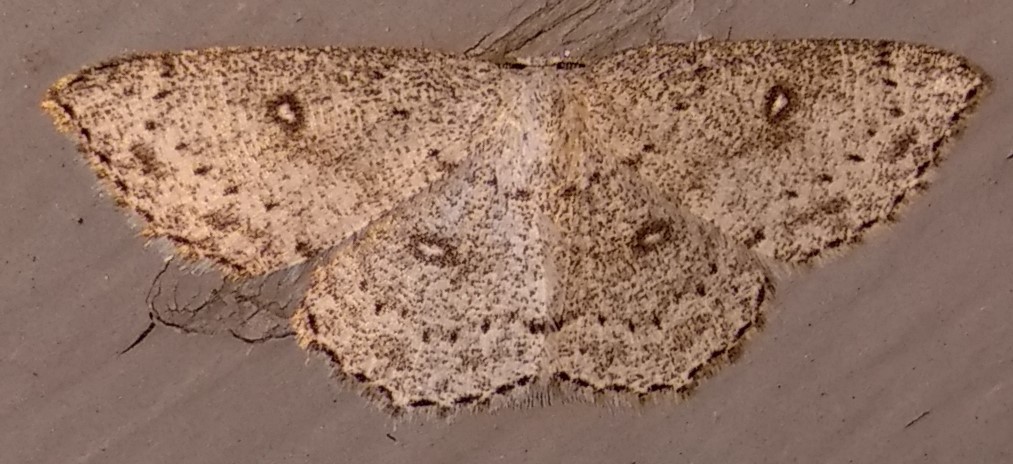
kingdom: Animalia
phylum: Arthropoda
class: Insecta
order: Lepidoptera
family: Geometridae
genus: Cyclophora
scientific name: Cyclophora pendulinaria
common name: Sweet fern geometer
